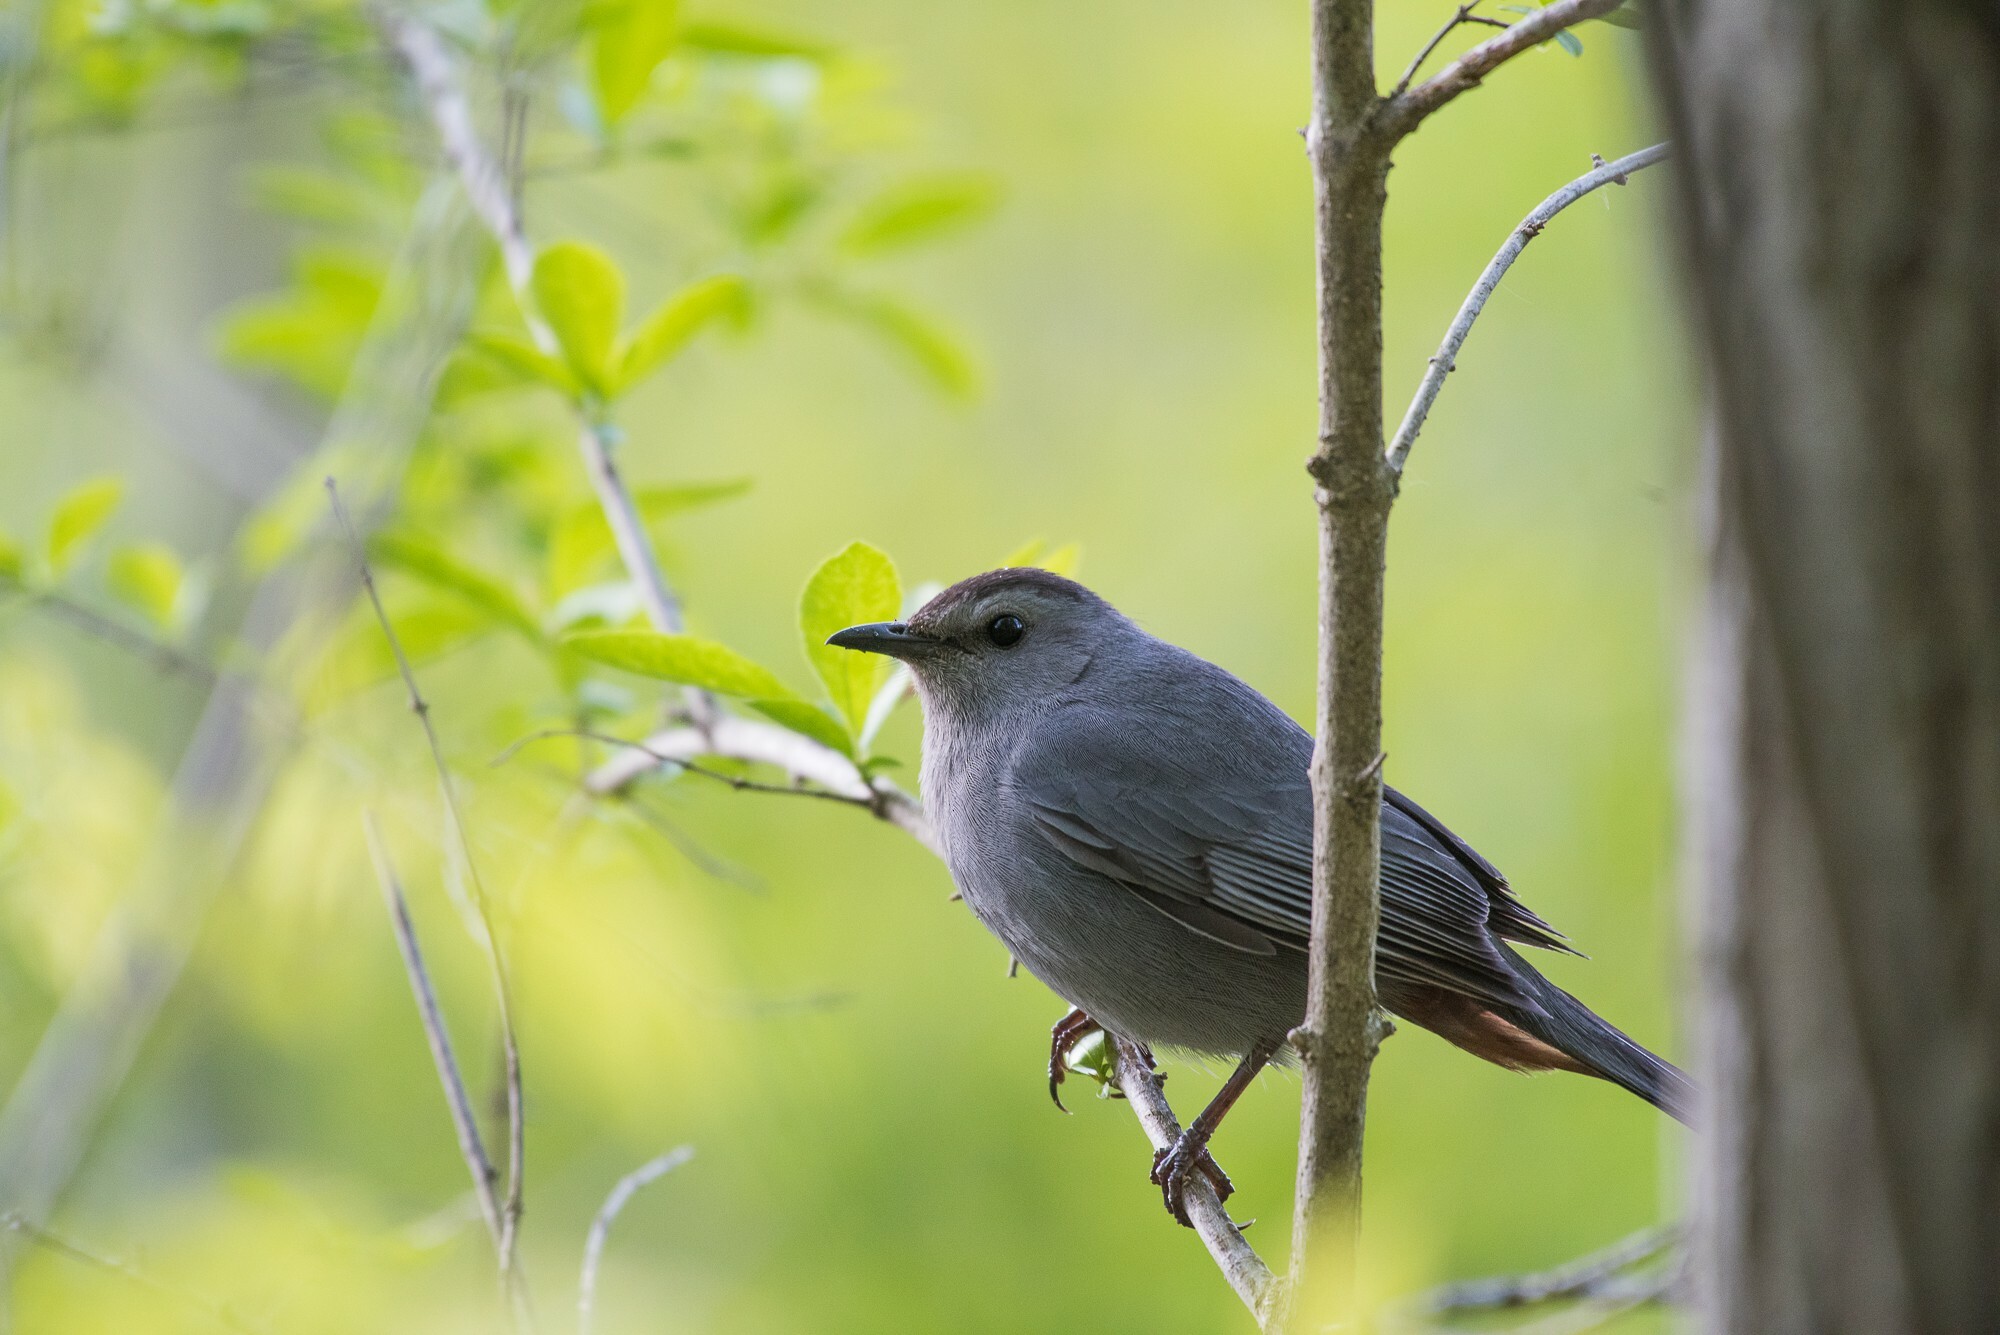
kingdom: Animalia
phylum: Chordata
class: Aves
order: Passeriformes
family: Mimidae
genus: Dumetella
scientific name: Dumetella carolinensis
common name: Gray catbird
